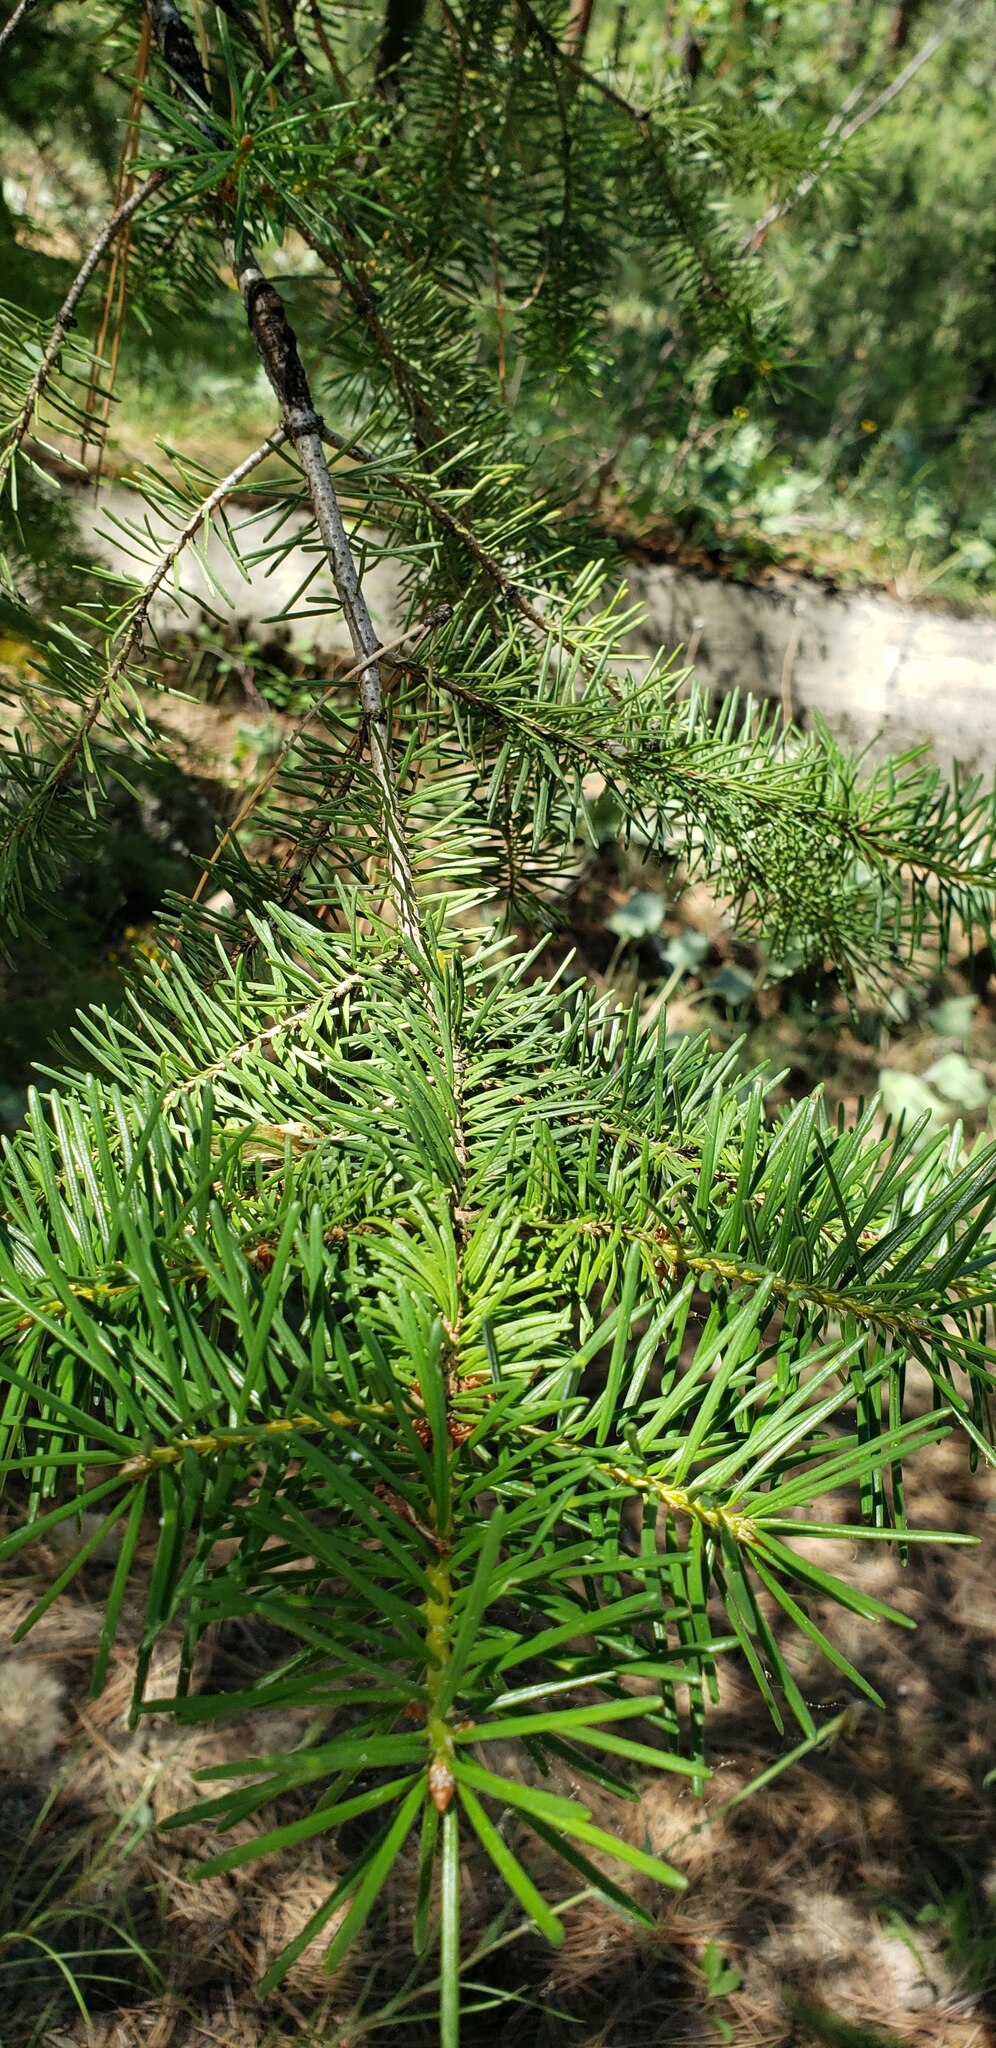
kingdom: Plantae
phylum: Tracheophyta
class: Pinopsida
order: Pinales
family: Pinaceae
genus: Pseudotsuga
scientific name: Pseudotsuga menziesii
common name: Douglas fir
